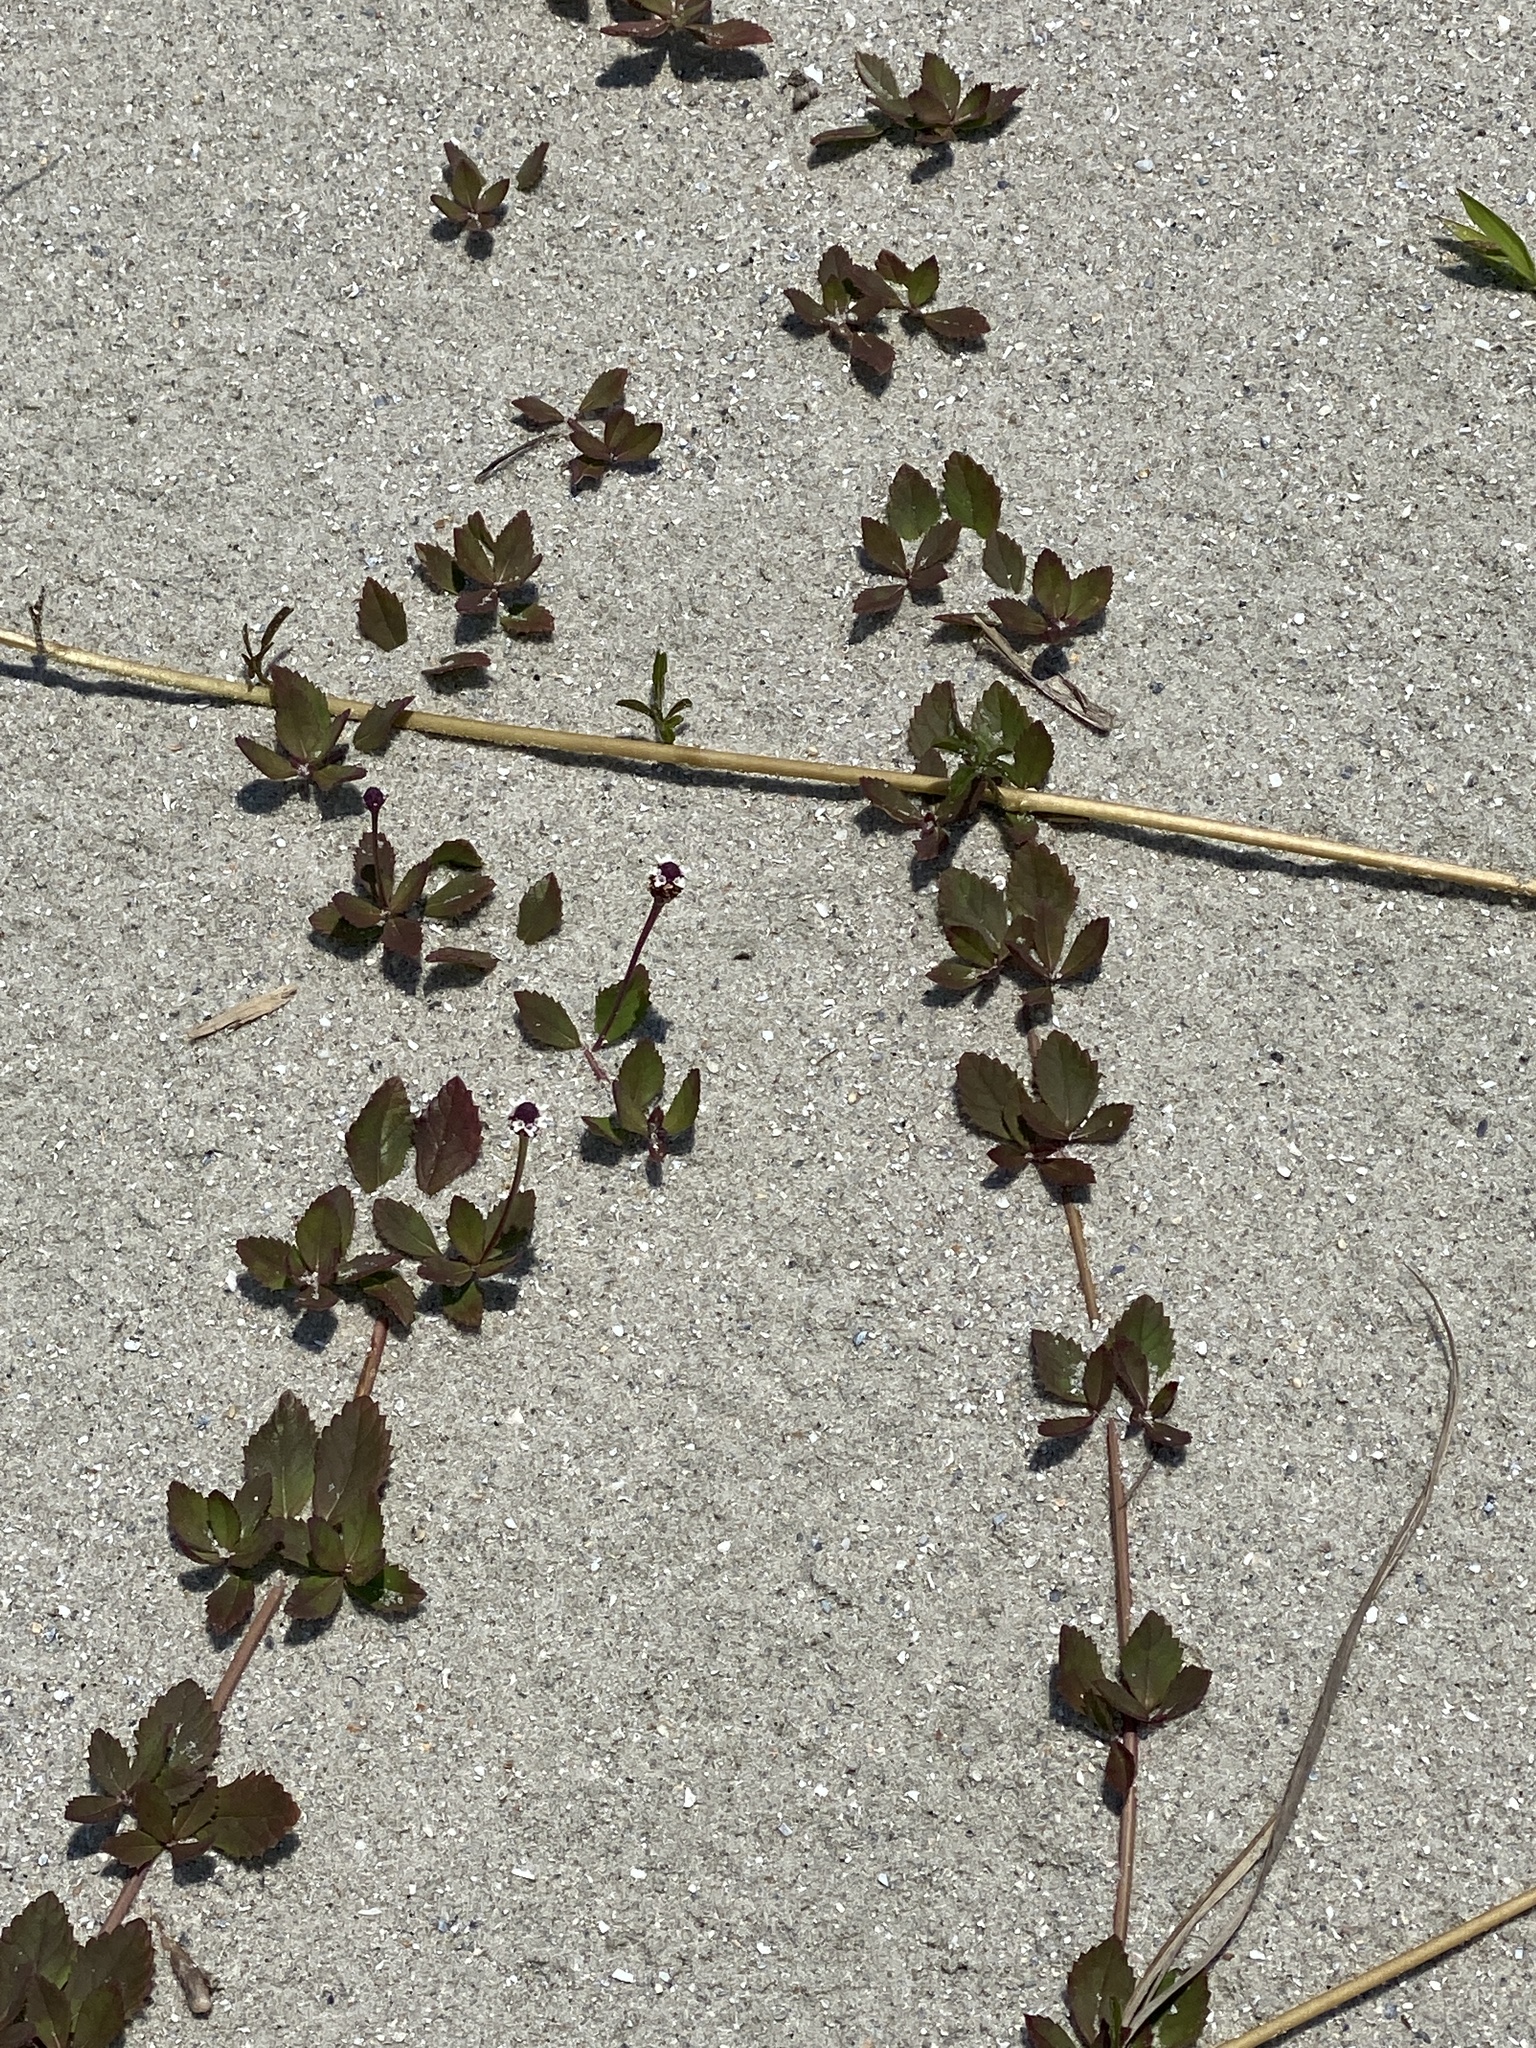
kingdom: Plantae
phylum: Tracheophyta
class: Magnoliopsida
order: Lamiales
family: Verbenaceae
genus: Phyla
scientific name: Phyla nodiflora
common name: Frogfruit
